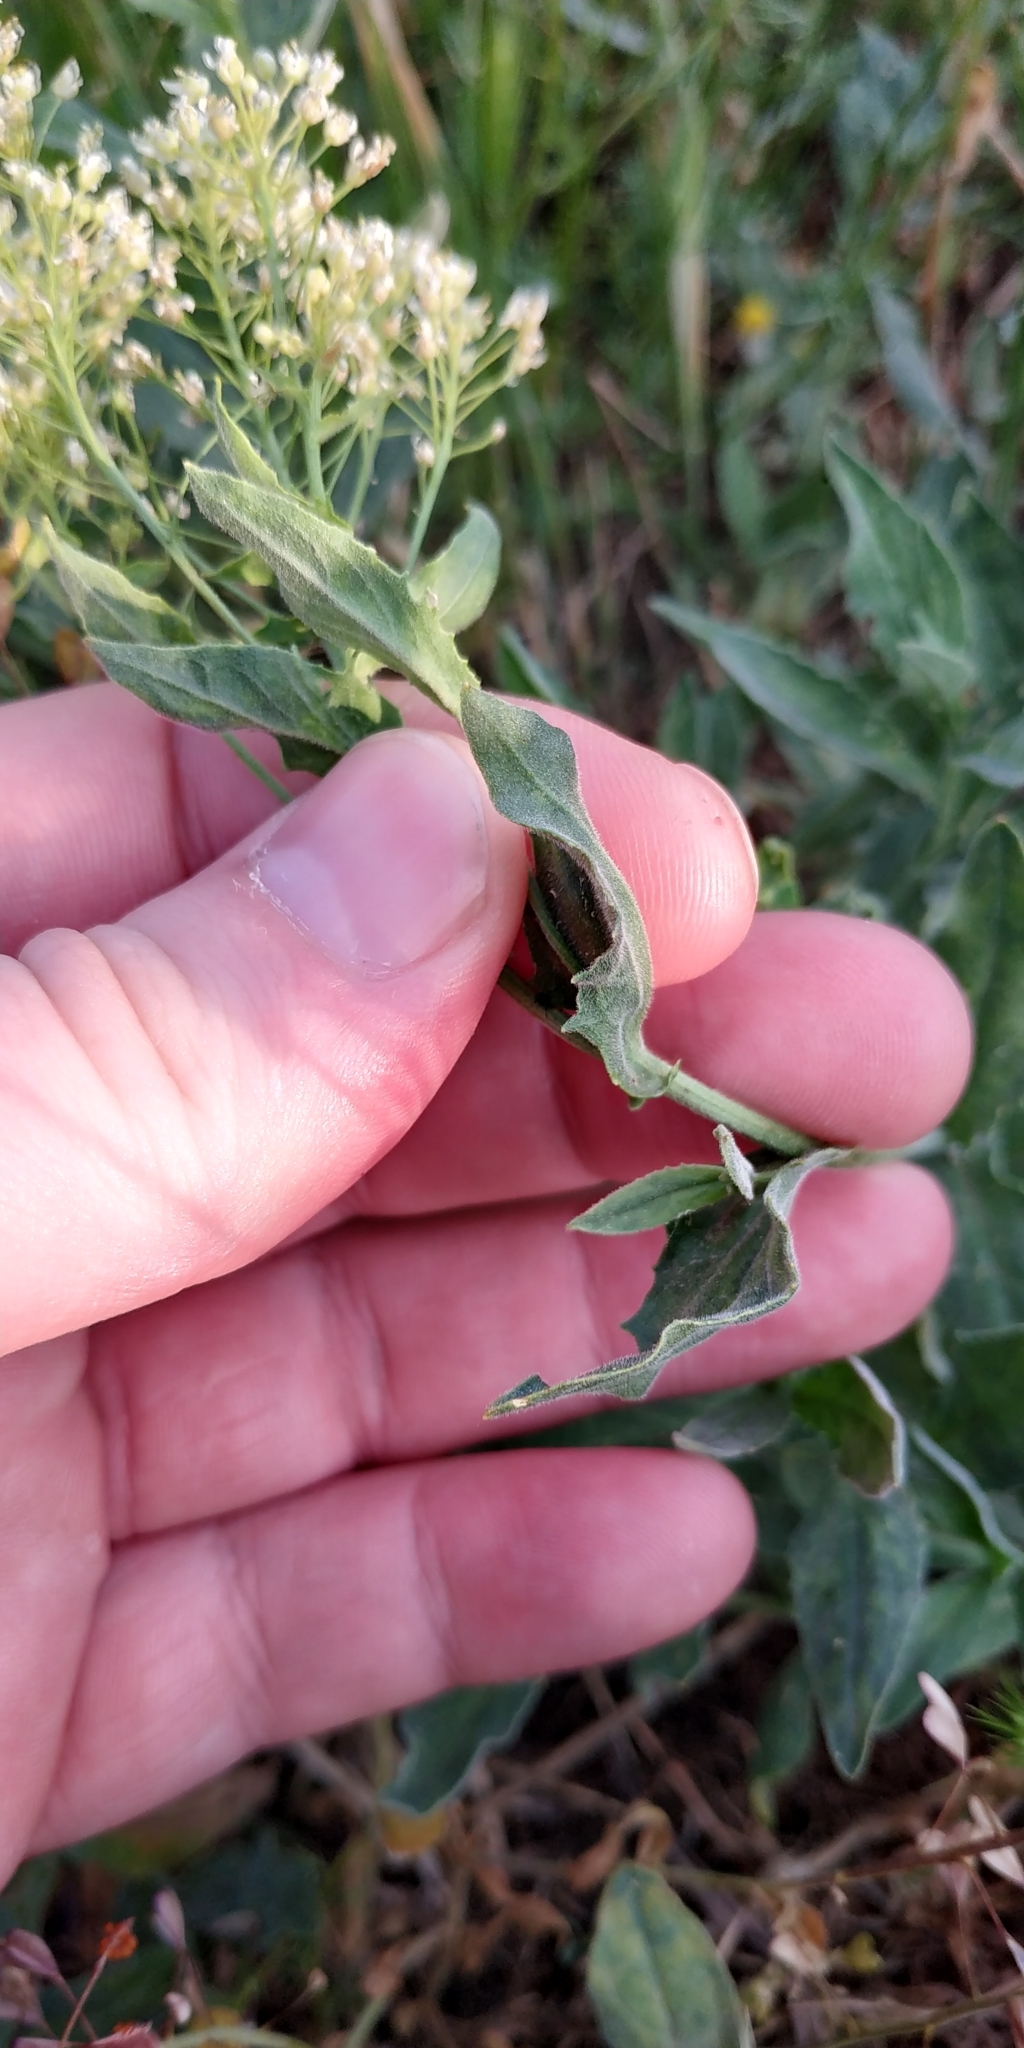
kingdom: Plantae
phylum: Tracheophyta
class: Magnoliopsida
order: Brassicales
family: Brassicaceae
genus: Lepidium
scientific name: Lepidium draba
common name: Hoary cress
